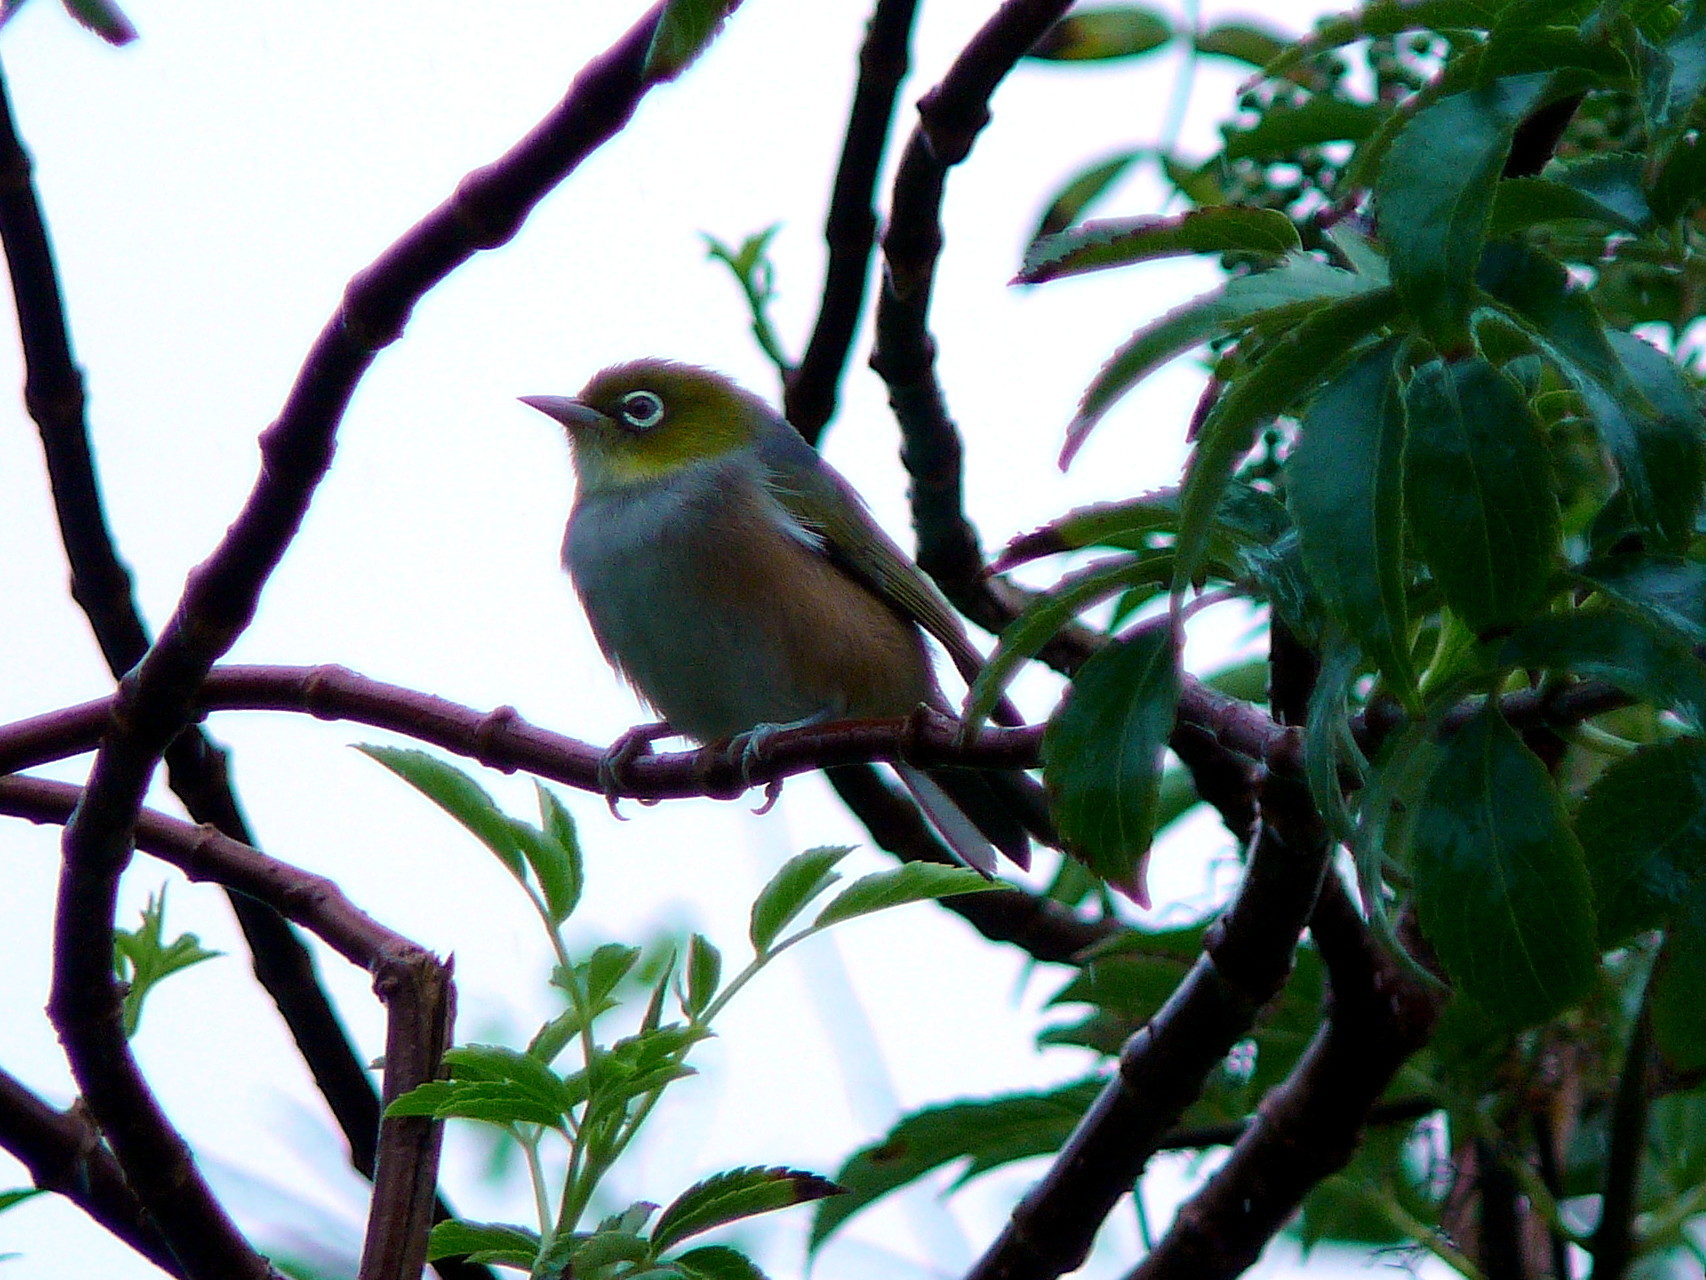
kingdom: Animalia
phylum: Chordata
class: Aves
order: Passeriformes
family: Zosteropidae
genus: Zosterops
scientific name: Zosterops lateralis
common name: Silvereye
